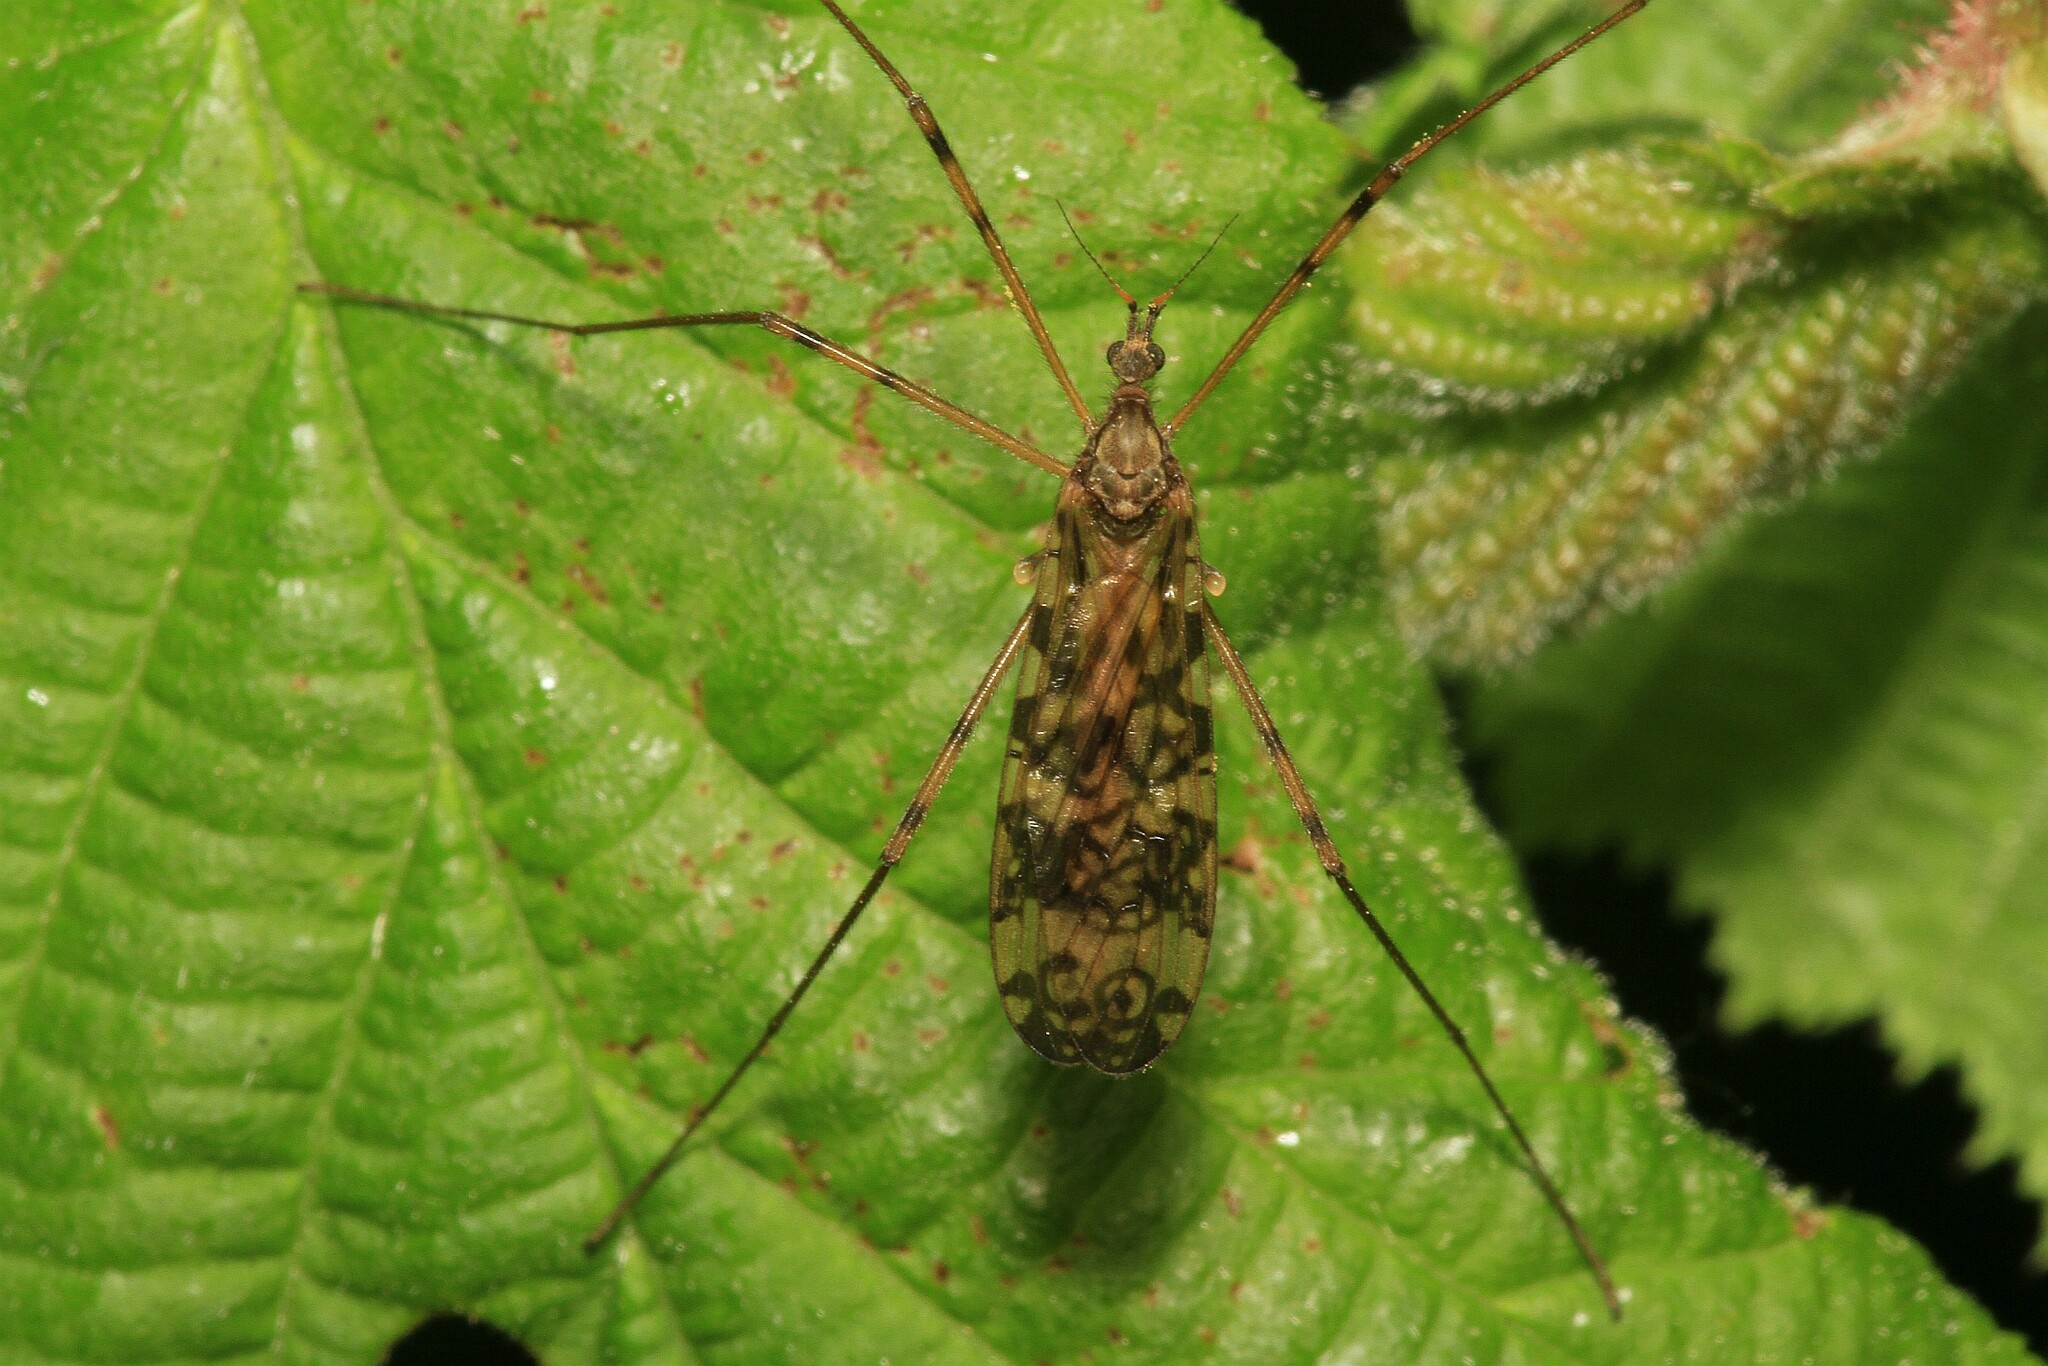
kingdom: Animalia
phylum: Arthropoda
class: Insecta
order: Diptera
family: Limoniidae
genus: Epiphragma
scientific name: Epiphragma ocellare
